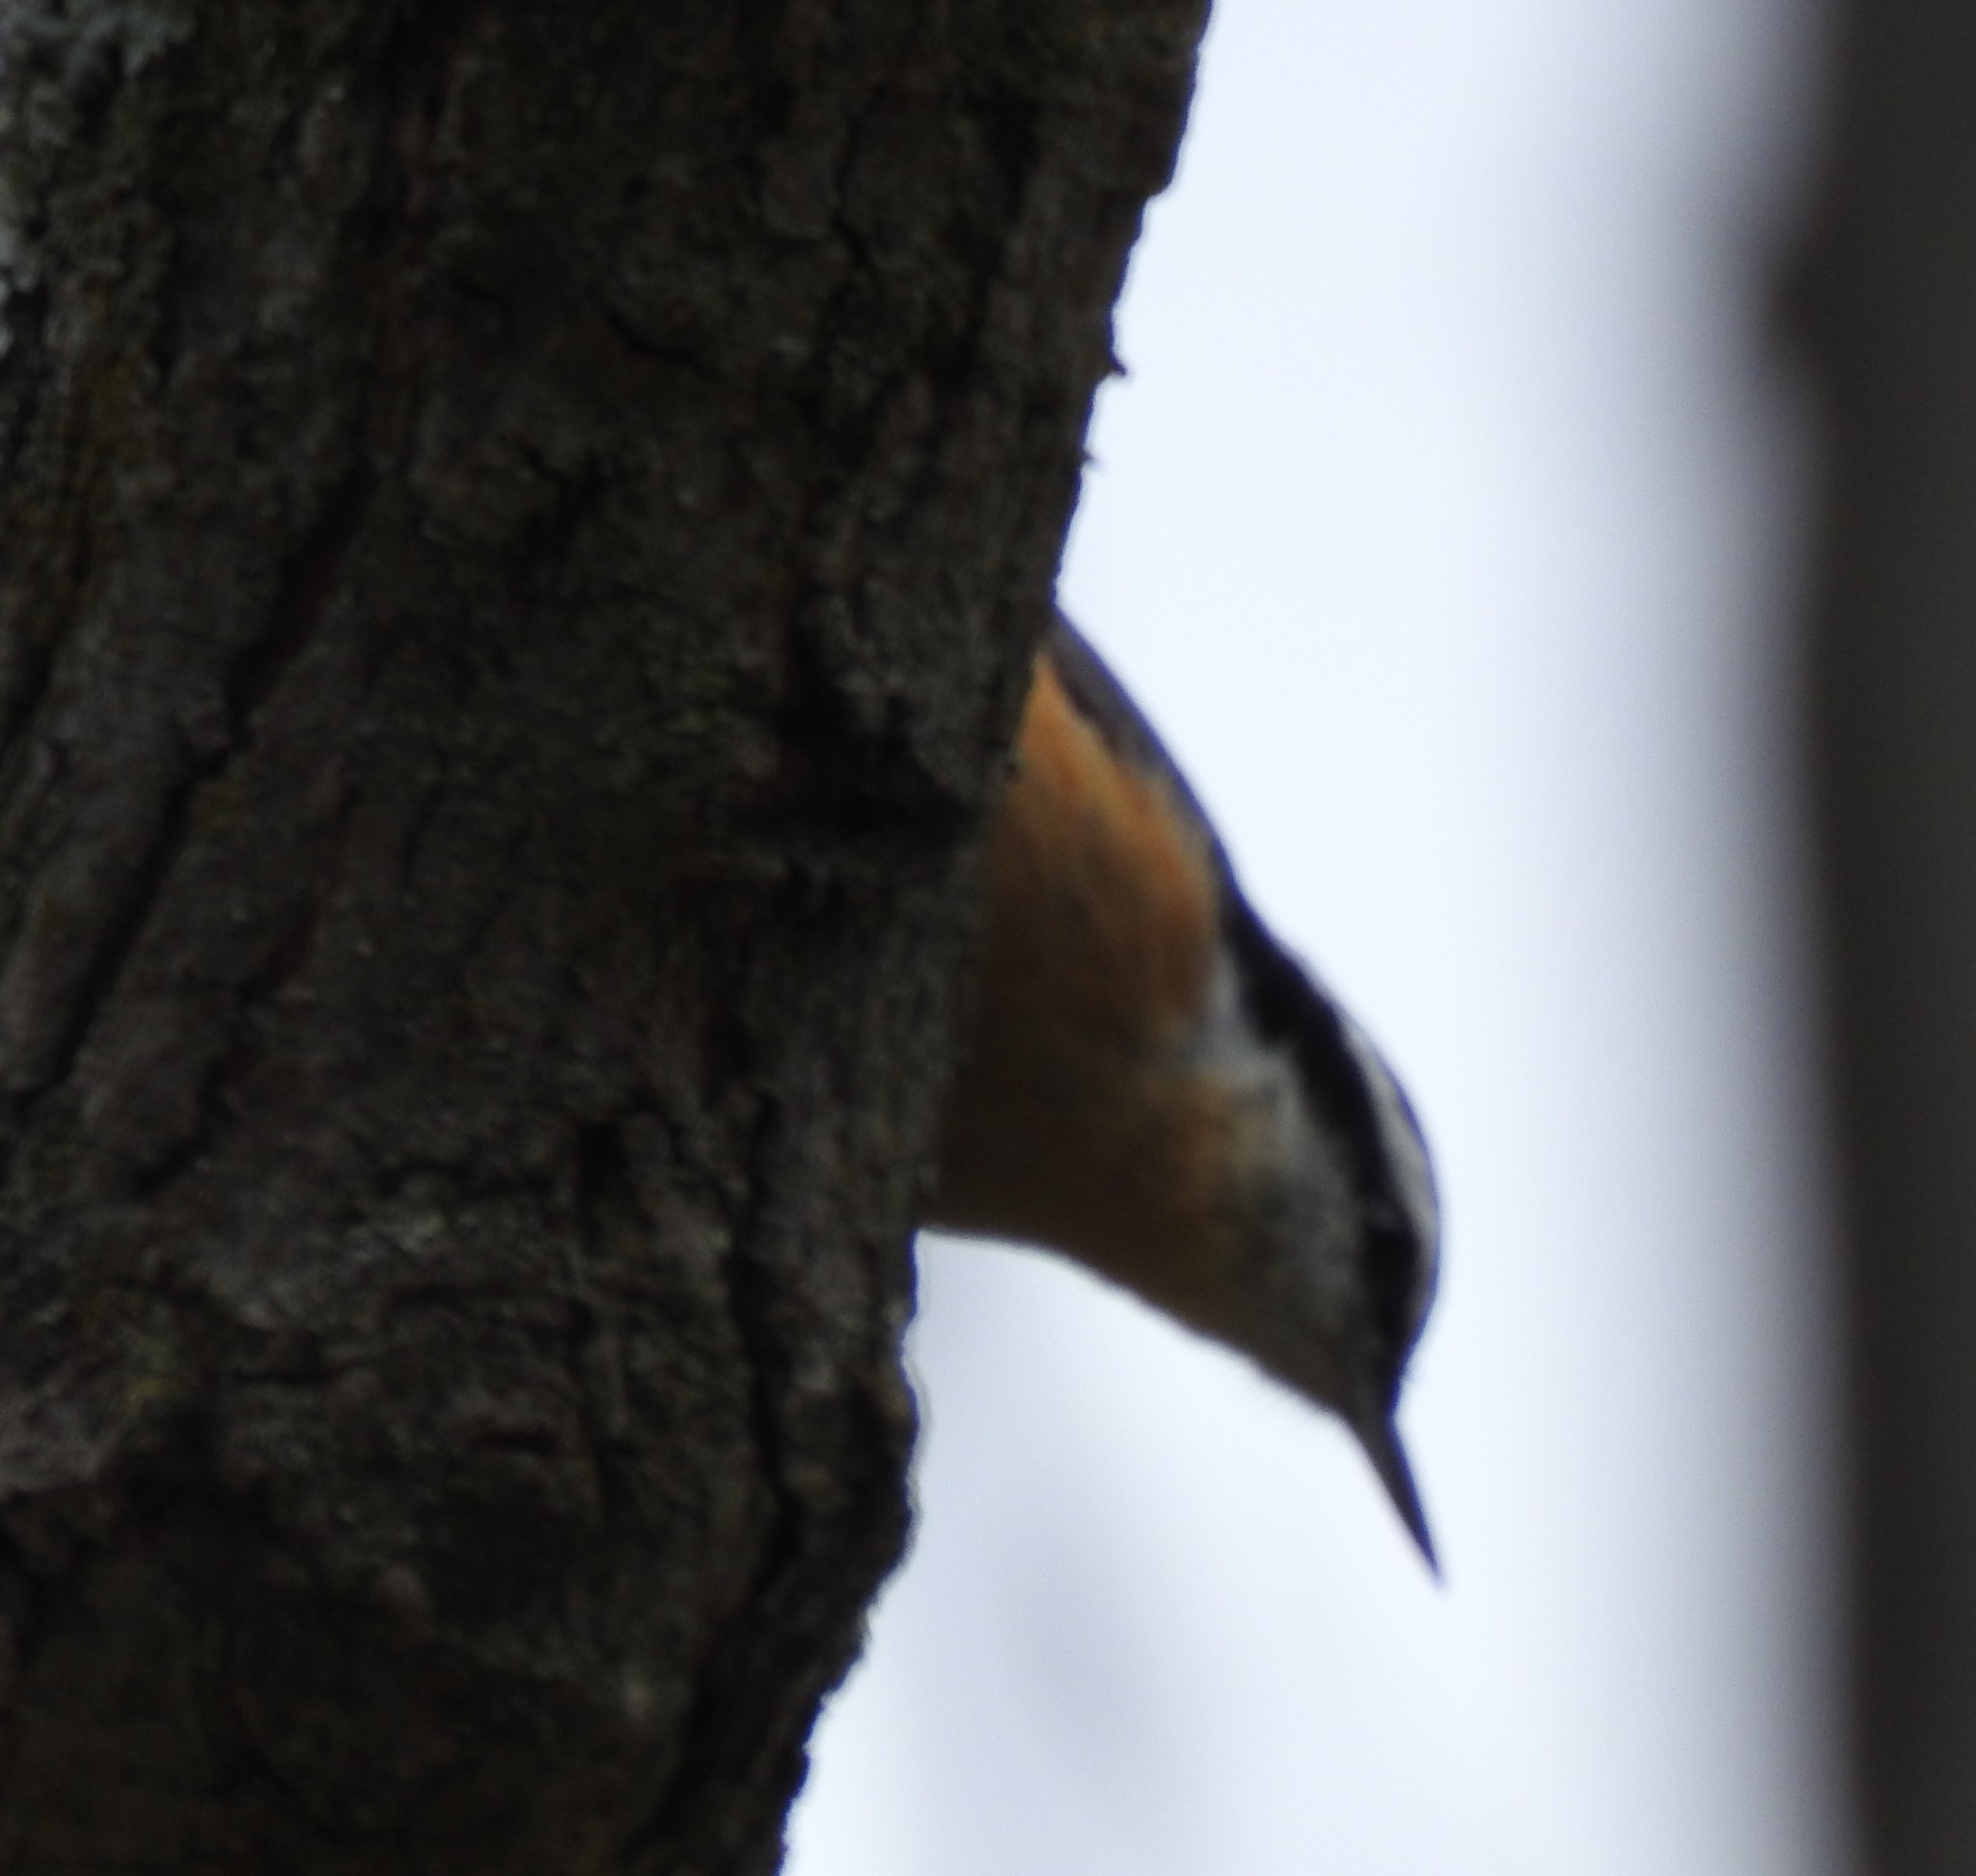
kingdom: Animalia
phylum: Chordata
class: Aves
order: Passeriformes
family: Sittidae
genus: Sitta
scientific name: Sitta canadensis
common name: Red-breasted nuthatch
